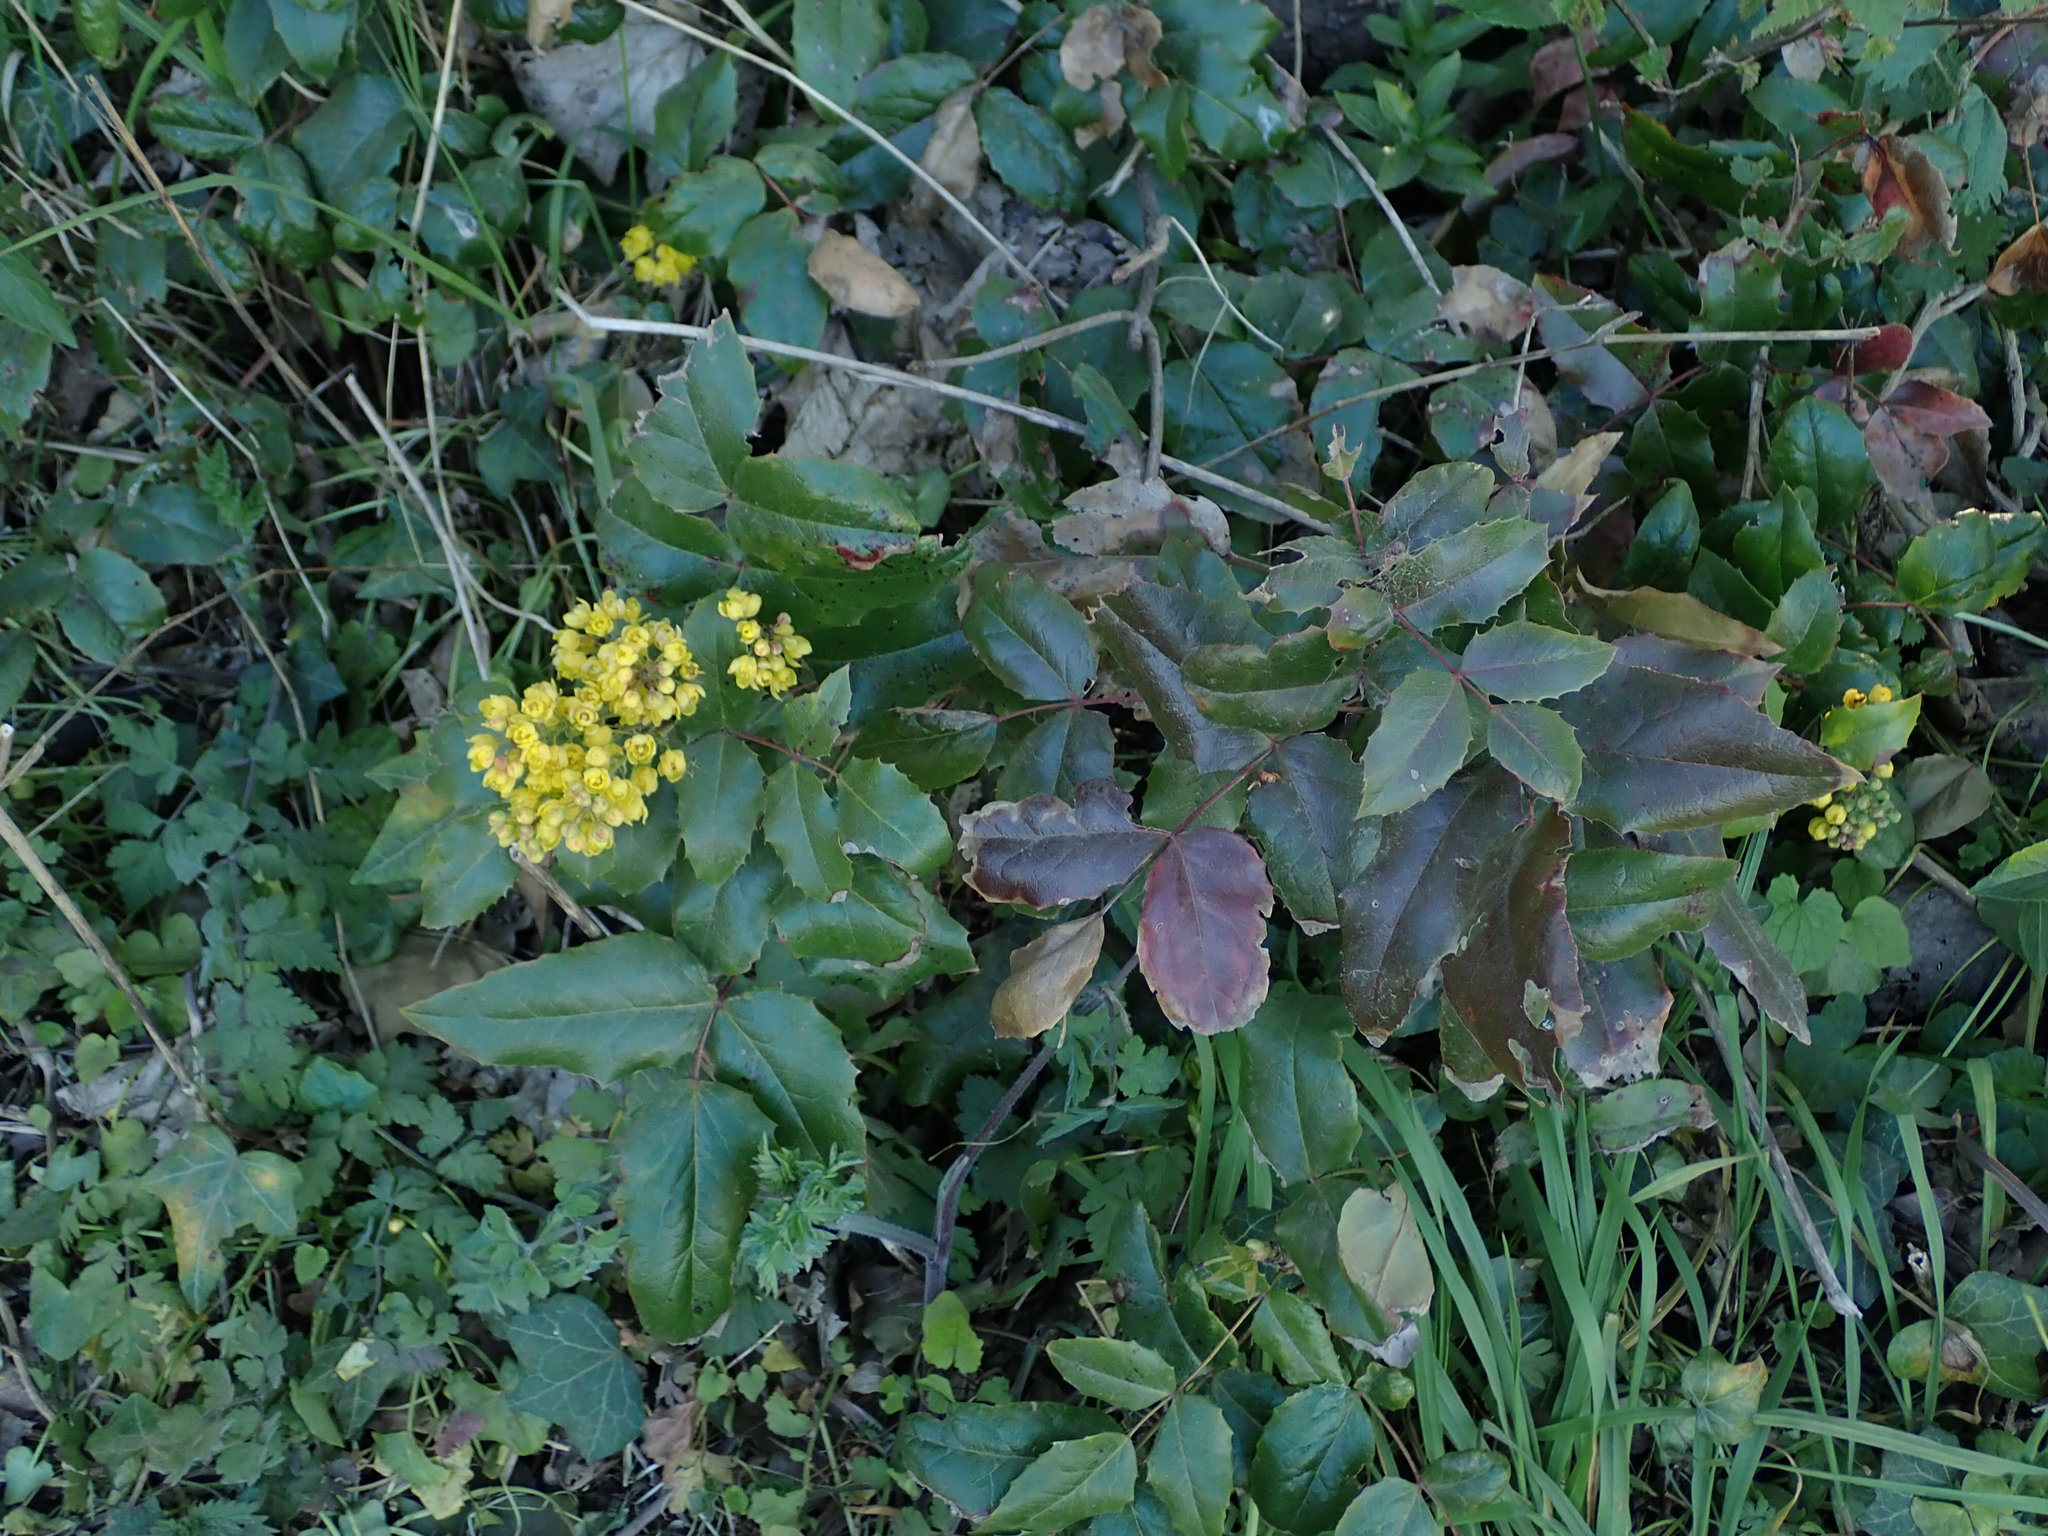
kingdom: Plantae
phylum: Tracheophyta
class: Magnoliopsida
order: Ranunculales
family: Berberidaceae
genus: Mahonia
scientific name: Mahonia aquifolium
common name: Oregon-grape
